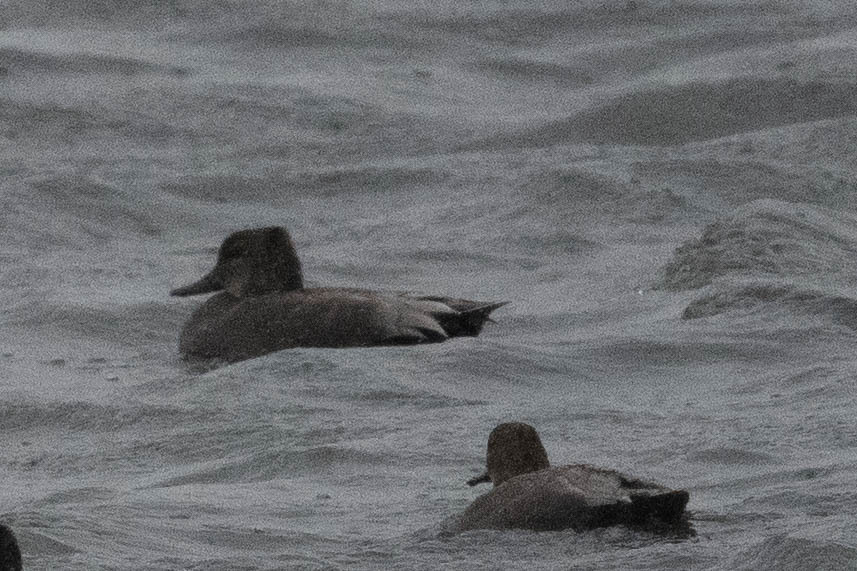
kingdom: Animalia
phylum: Chordata
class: Aves
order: Anseriformes
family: Anatidae
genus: Mareca
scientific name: Mareca strepera
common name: Gadwall
